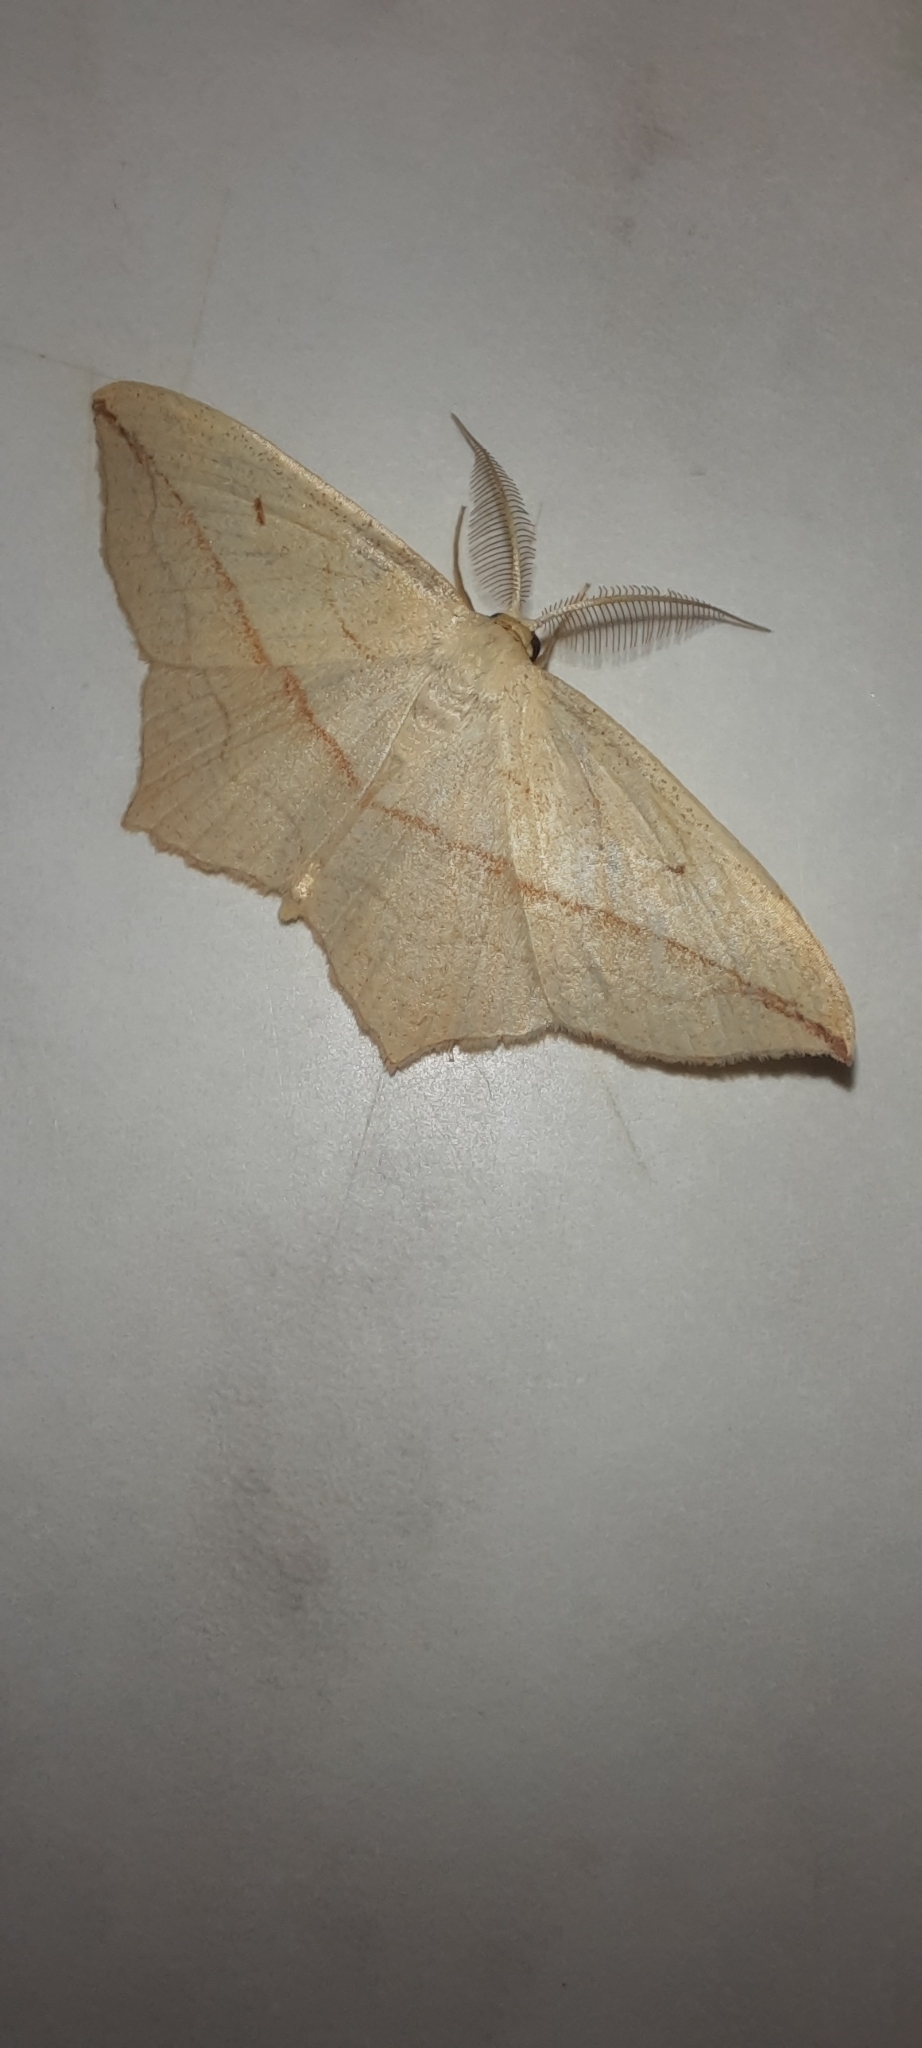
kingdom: Animalia
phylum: Arthropoda
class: Insecta
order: Lepidoptera
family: Geometridae
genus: Timandra
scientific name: Timandra comae
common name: Blood-vein
